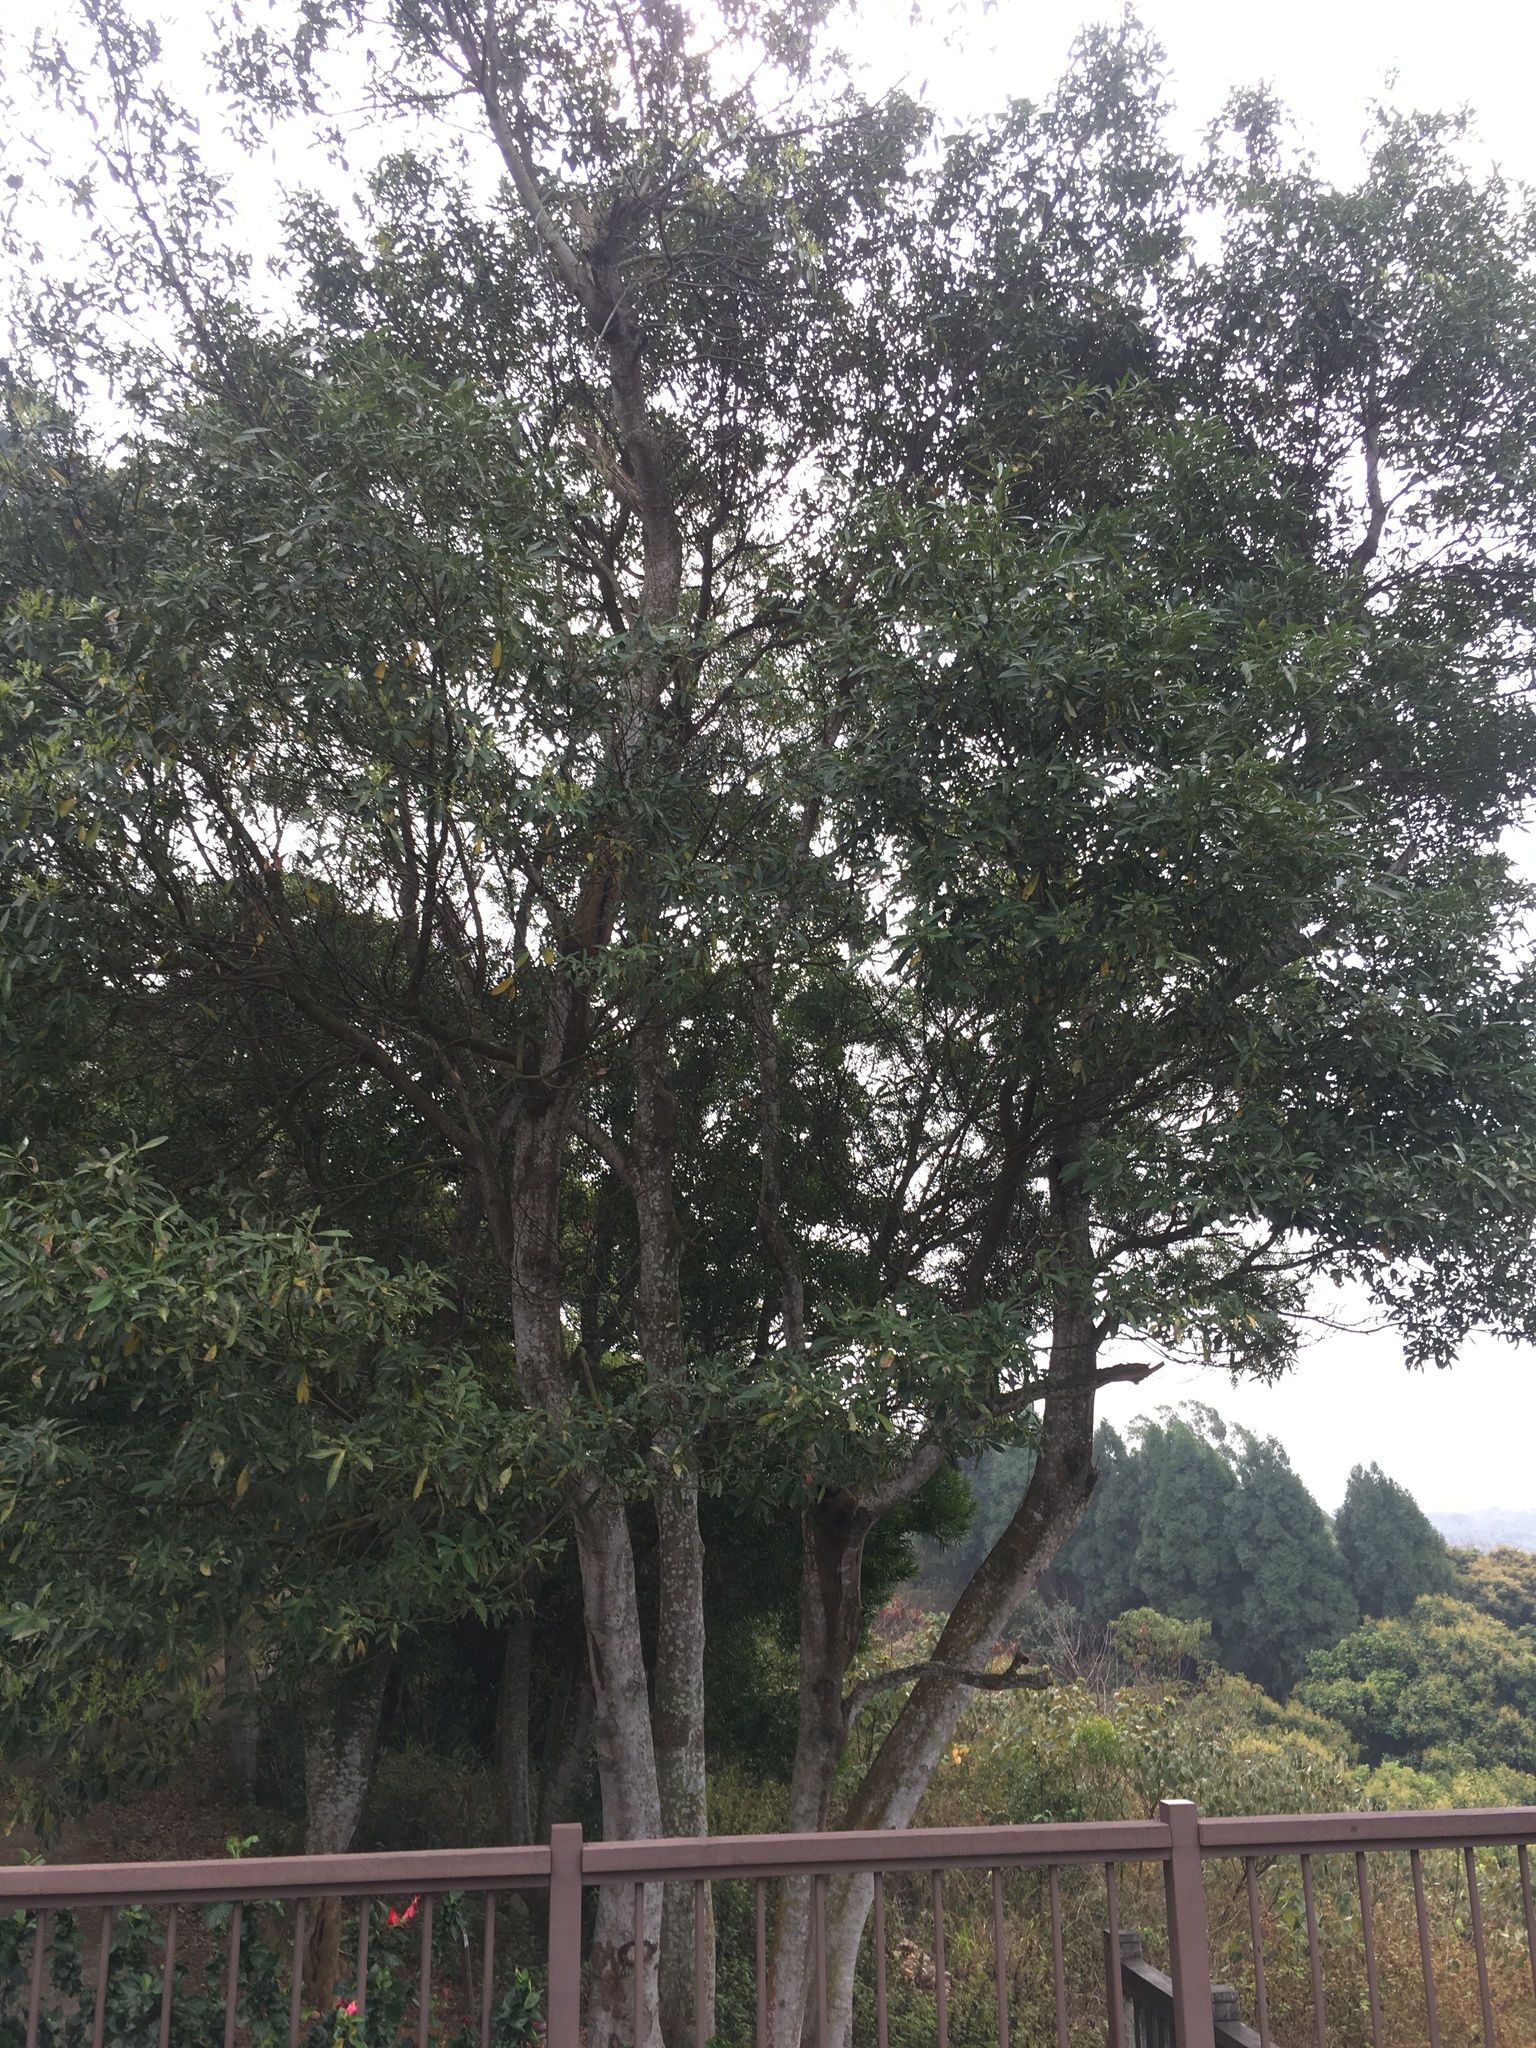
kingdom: Plantae
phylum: Tracheophyta
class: Magnoliopsida
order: Laurales
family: Lauraceae
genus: Machilus
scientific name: Machilus zuihoensis
